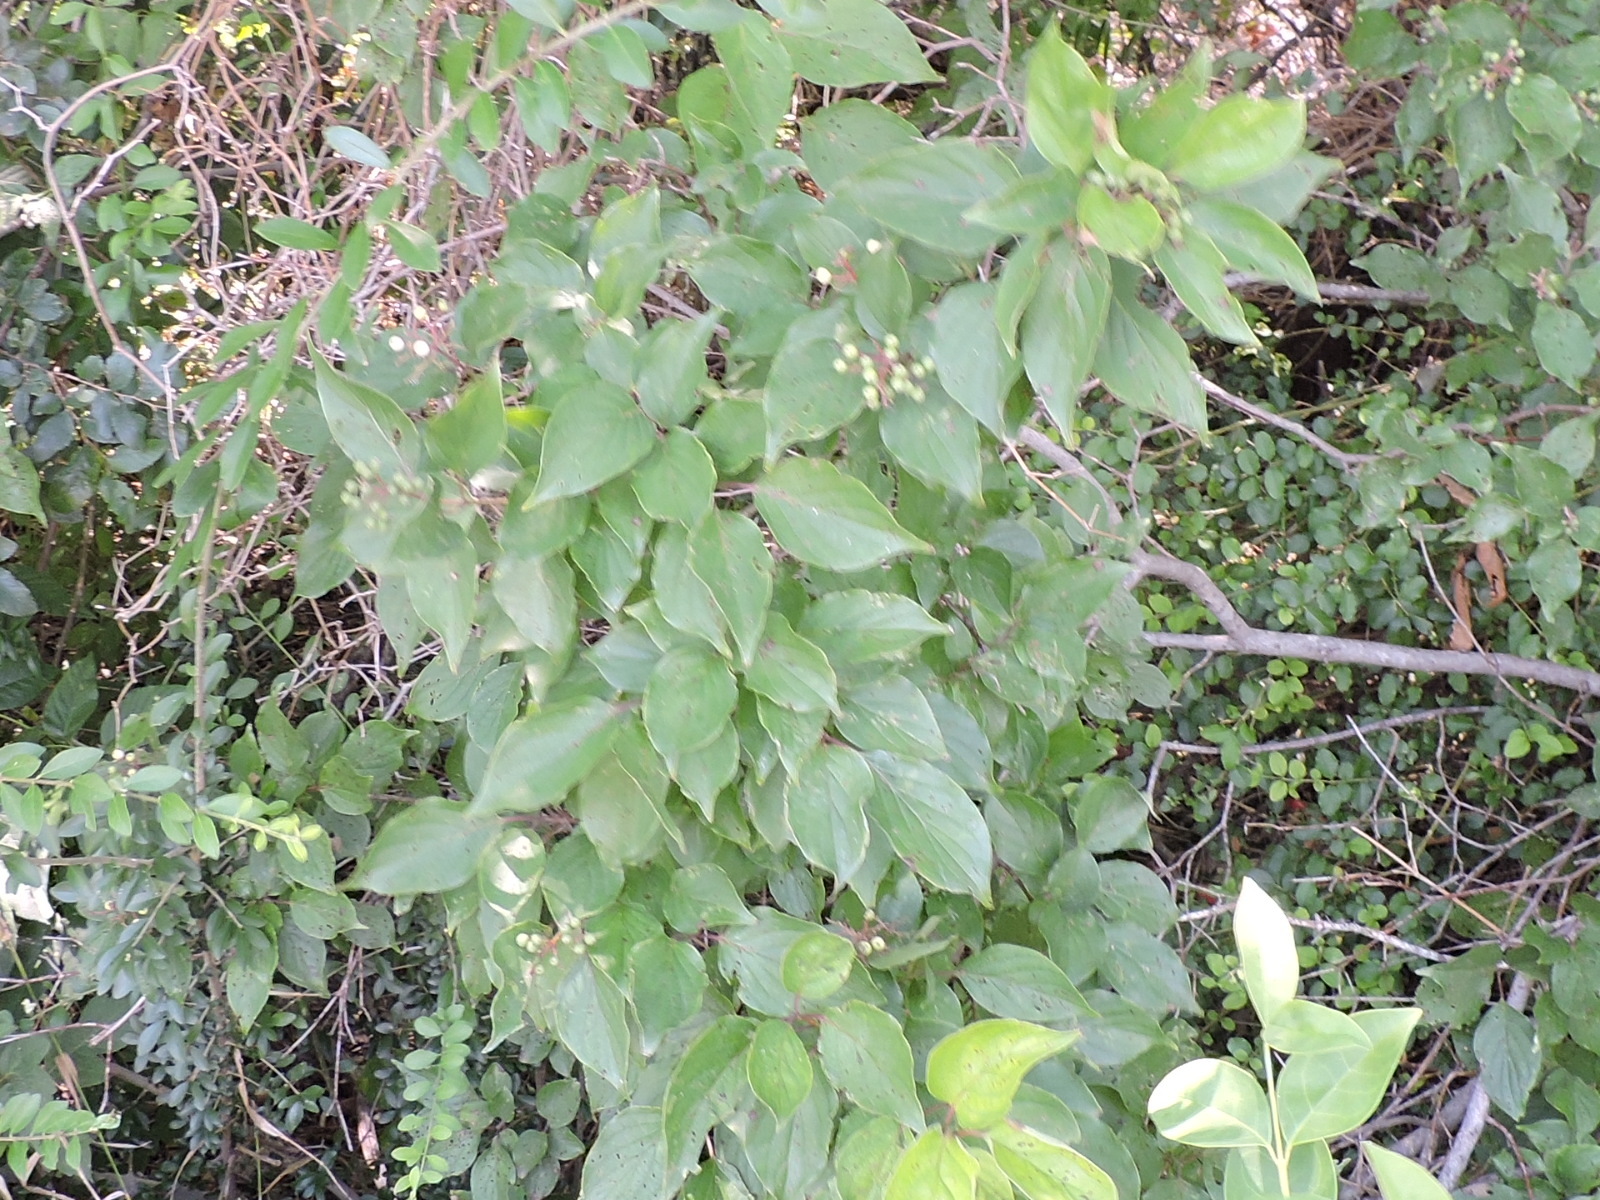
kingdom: Plantae
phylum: Tracheophyta
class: Magnoliopsida
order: Cornales
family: Cornaceae
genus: Cornus
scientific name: Cornus drummondii
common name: Rough-leaf dogwood
